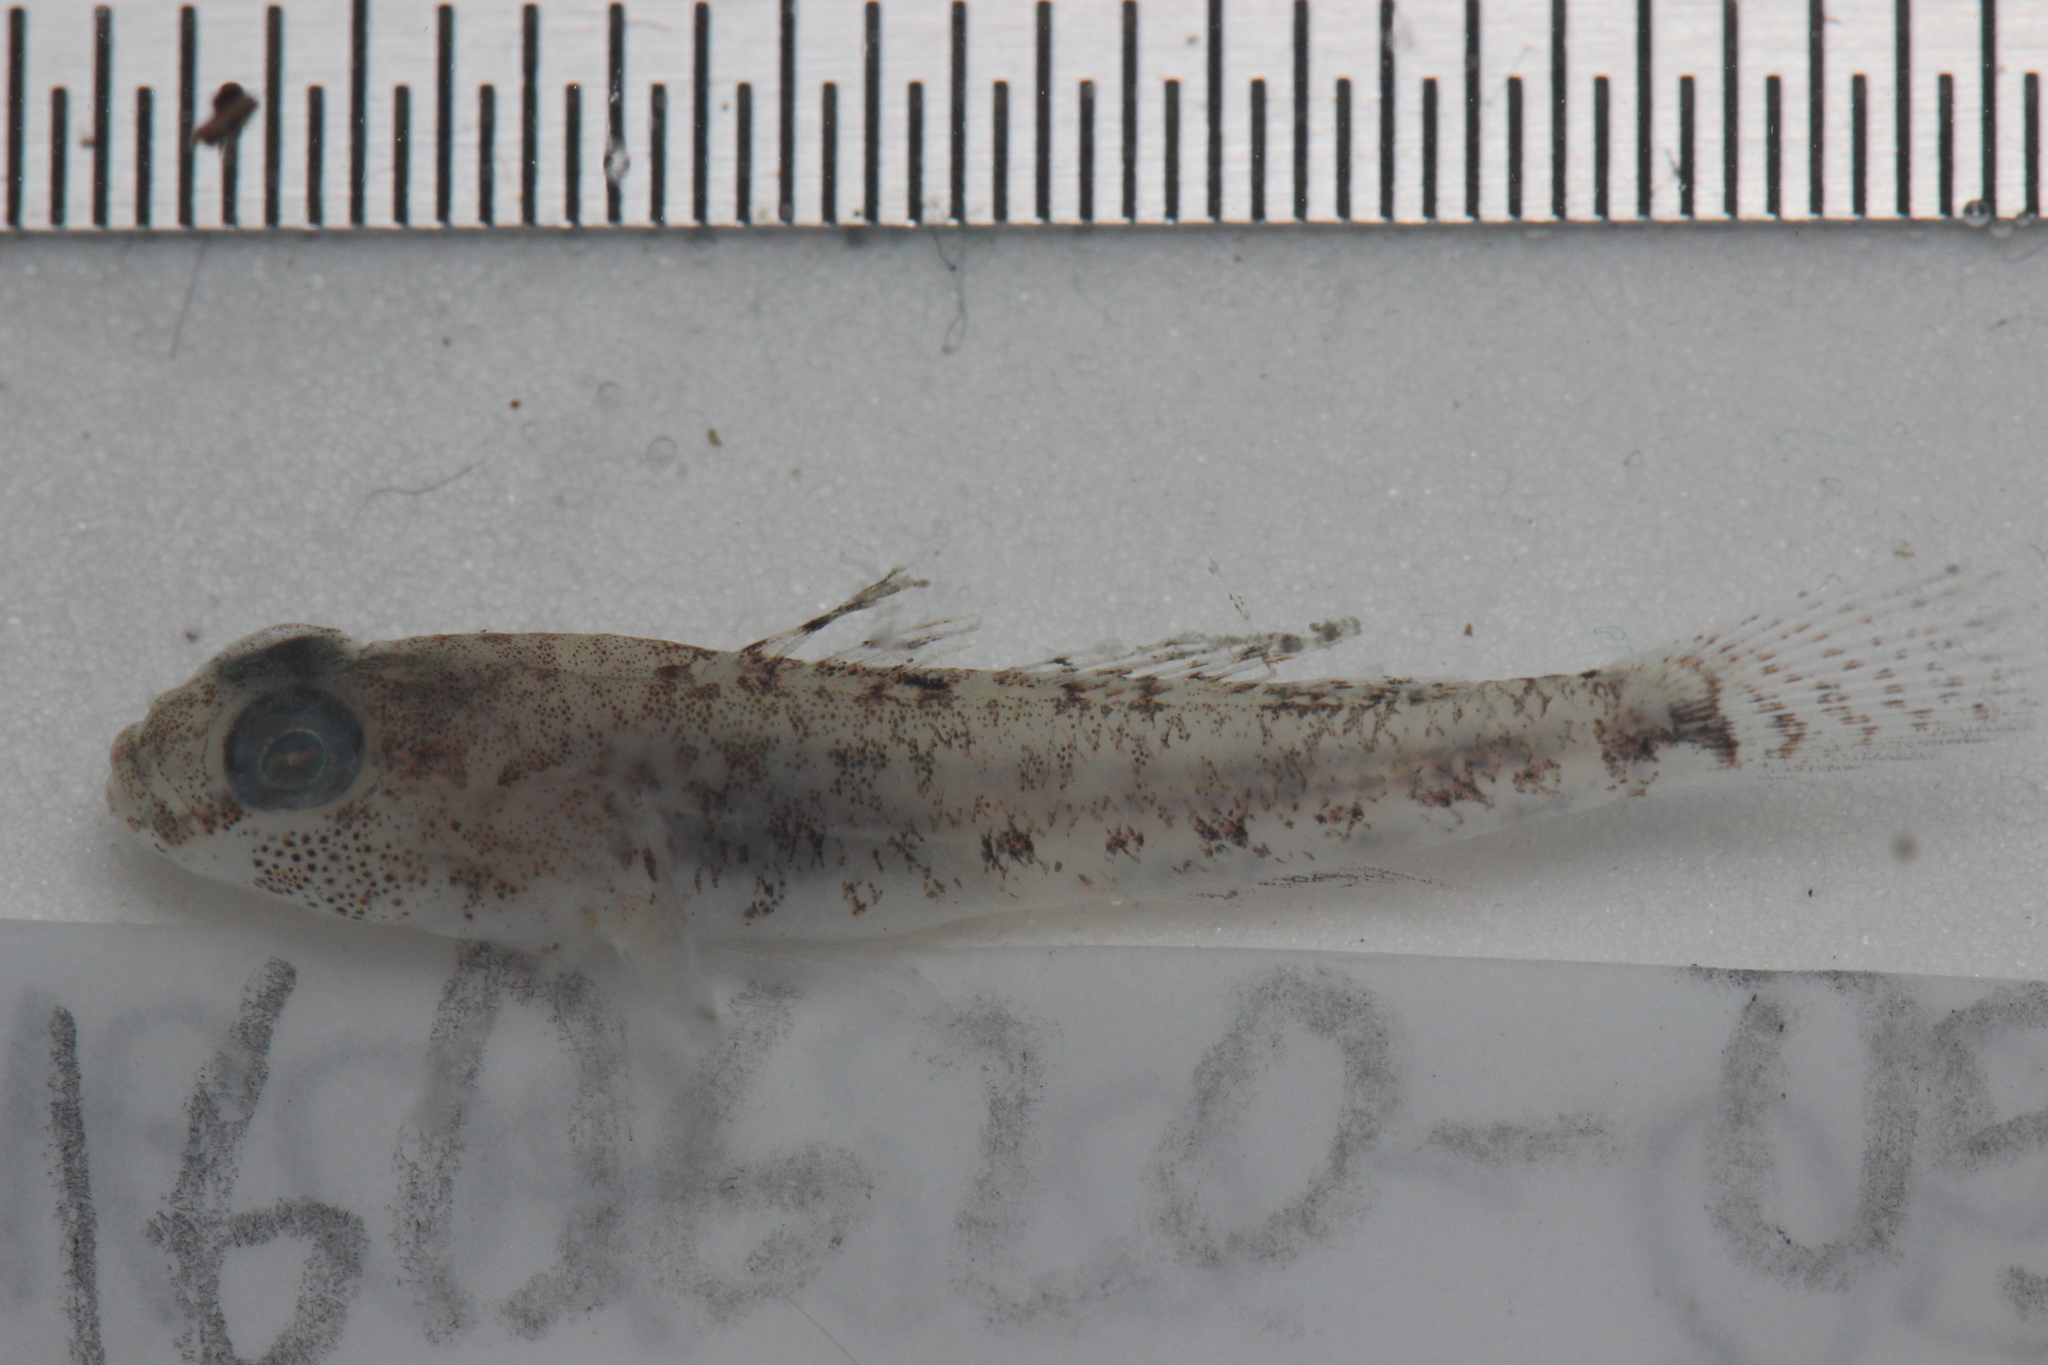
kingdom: Animalia
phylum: Chordata
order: Perciformes
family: Gobiidae
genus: Gobius
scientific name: Gobius niger
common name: Black goby
